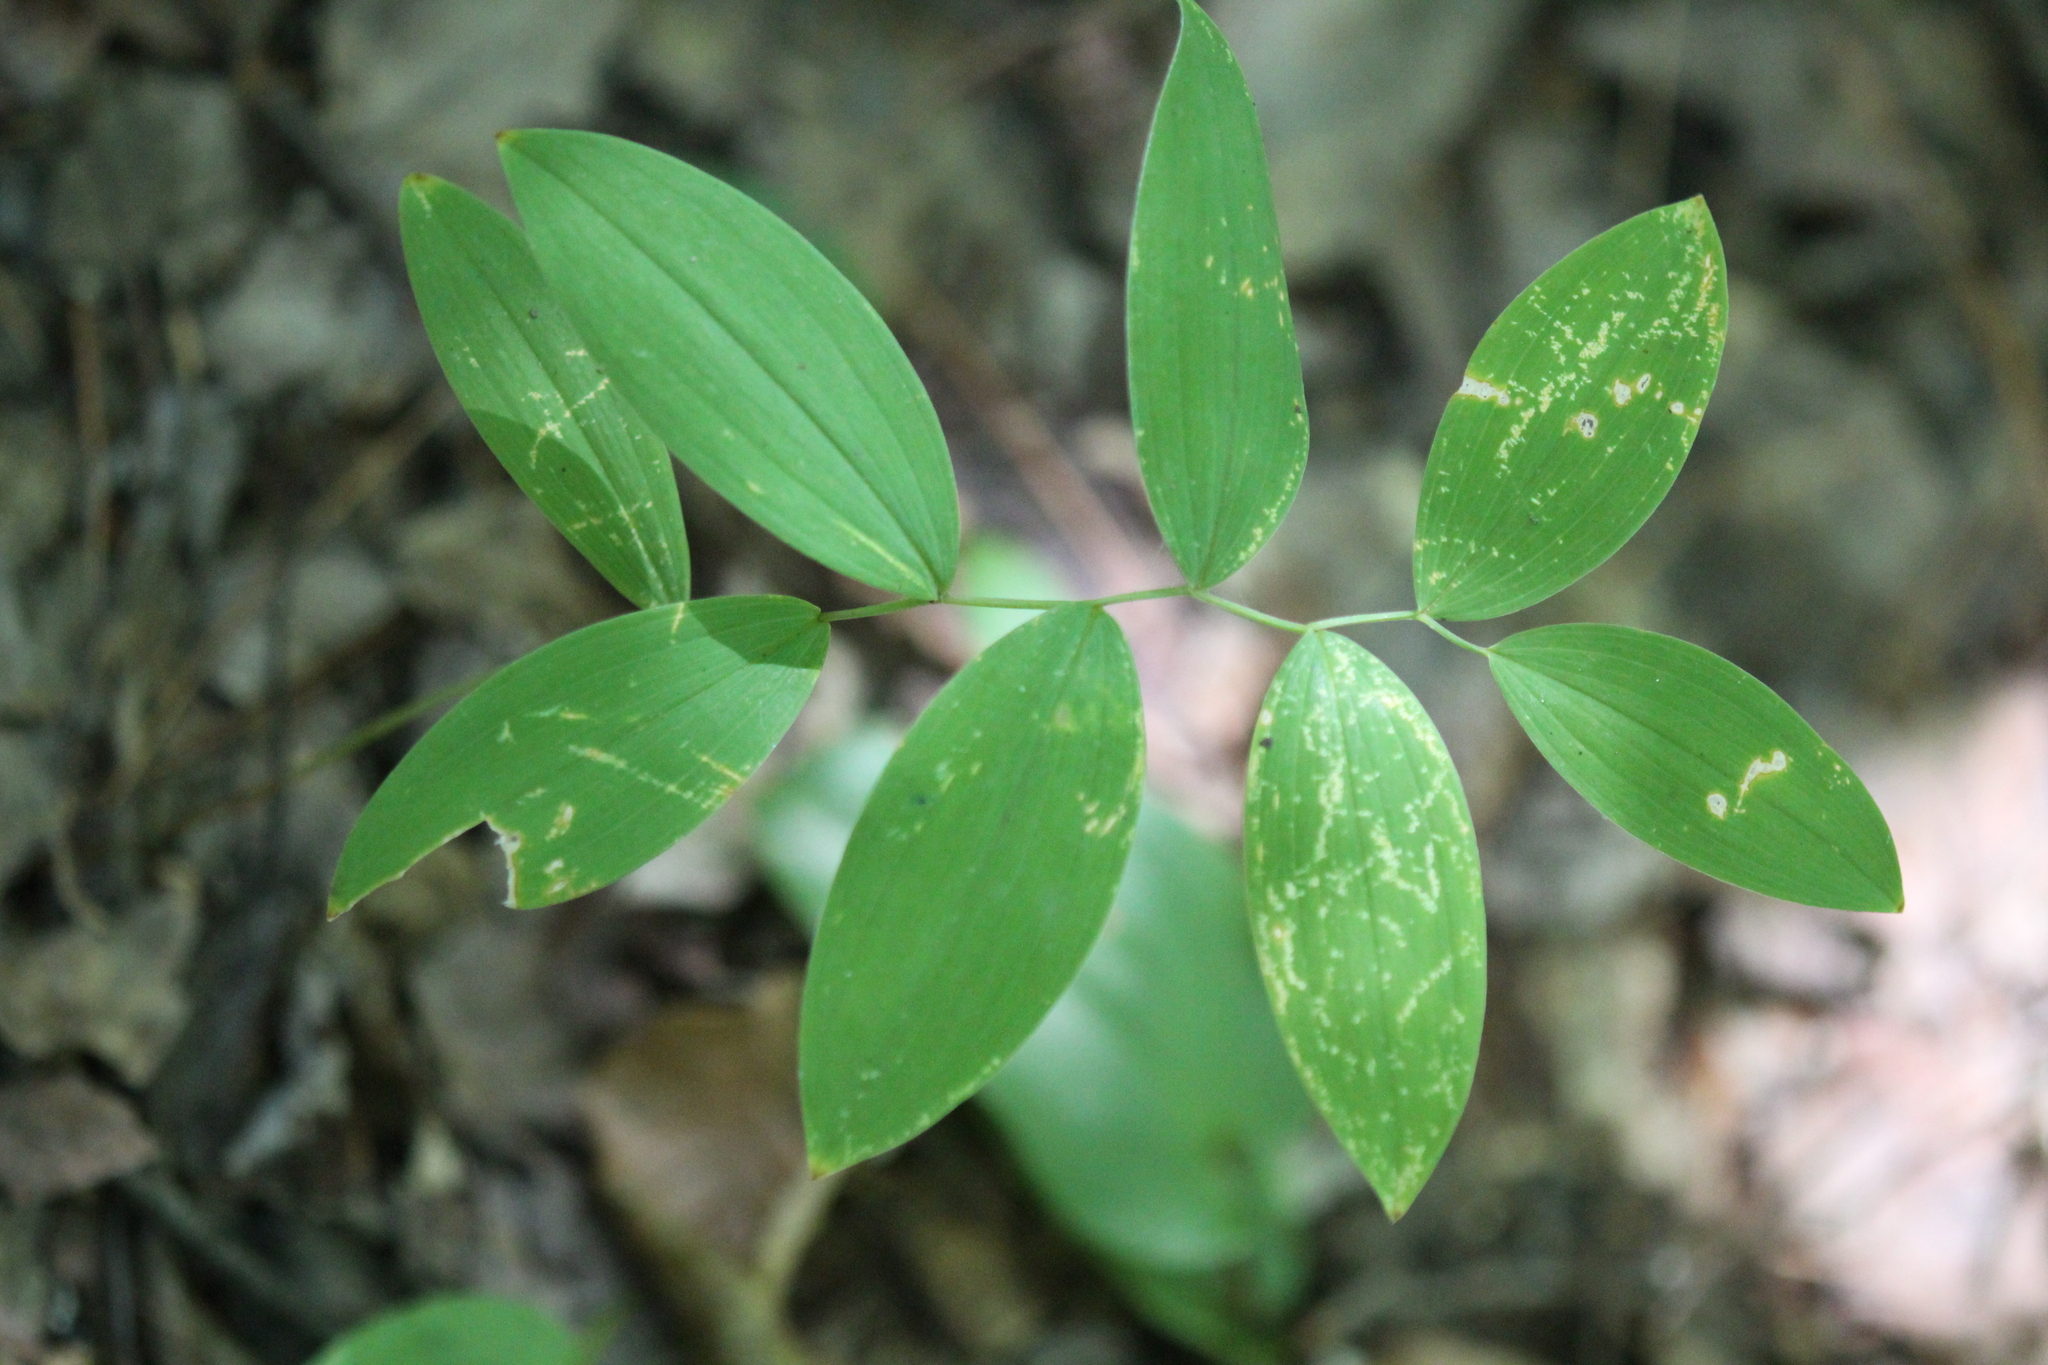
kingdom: Plantae
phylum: Tracheophyta
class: Liliopsida
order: Liliales
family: Colchicaceae
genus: Uvularia
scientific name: Uvularia sessilifolia
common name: Straw-lily
